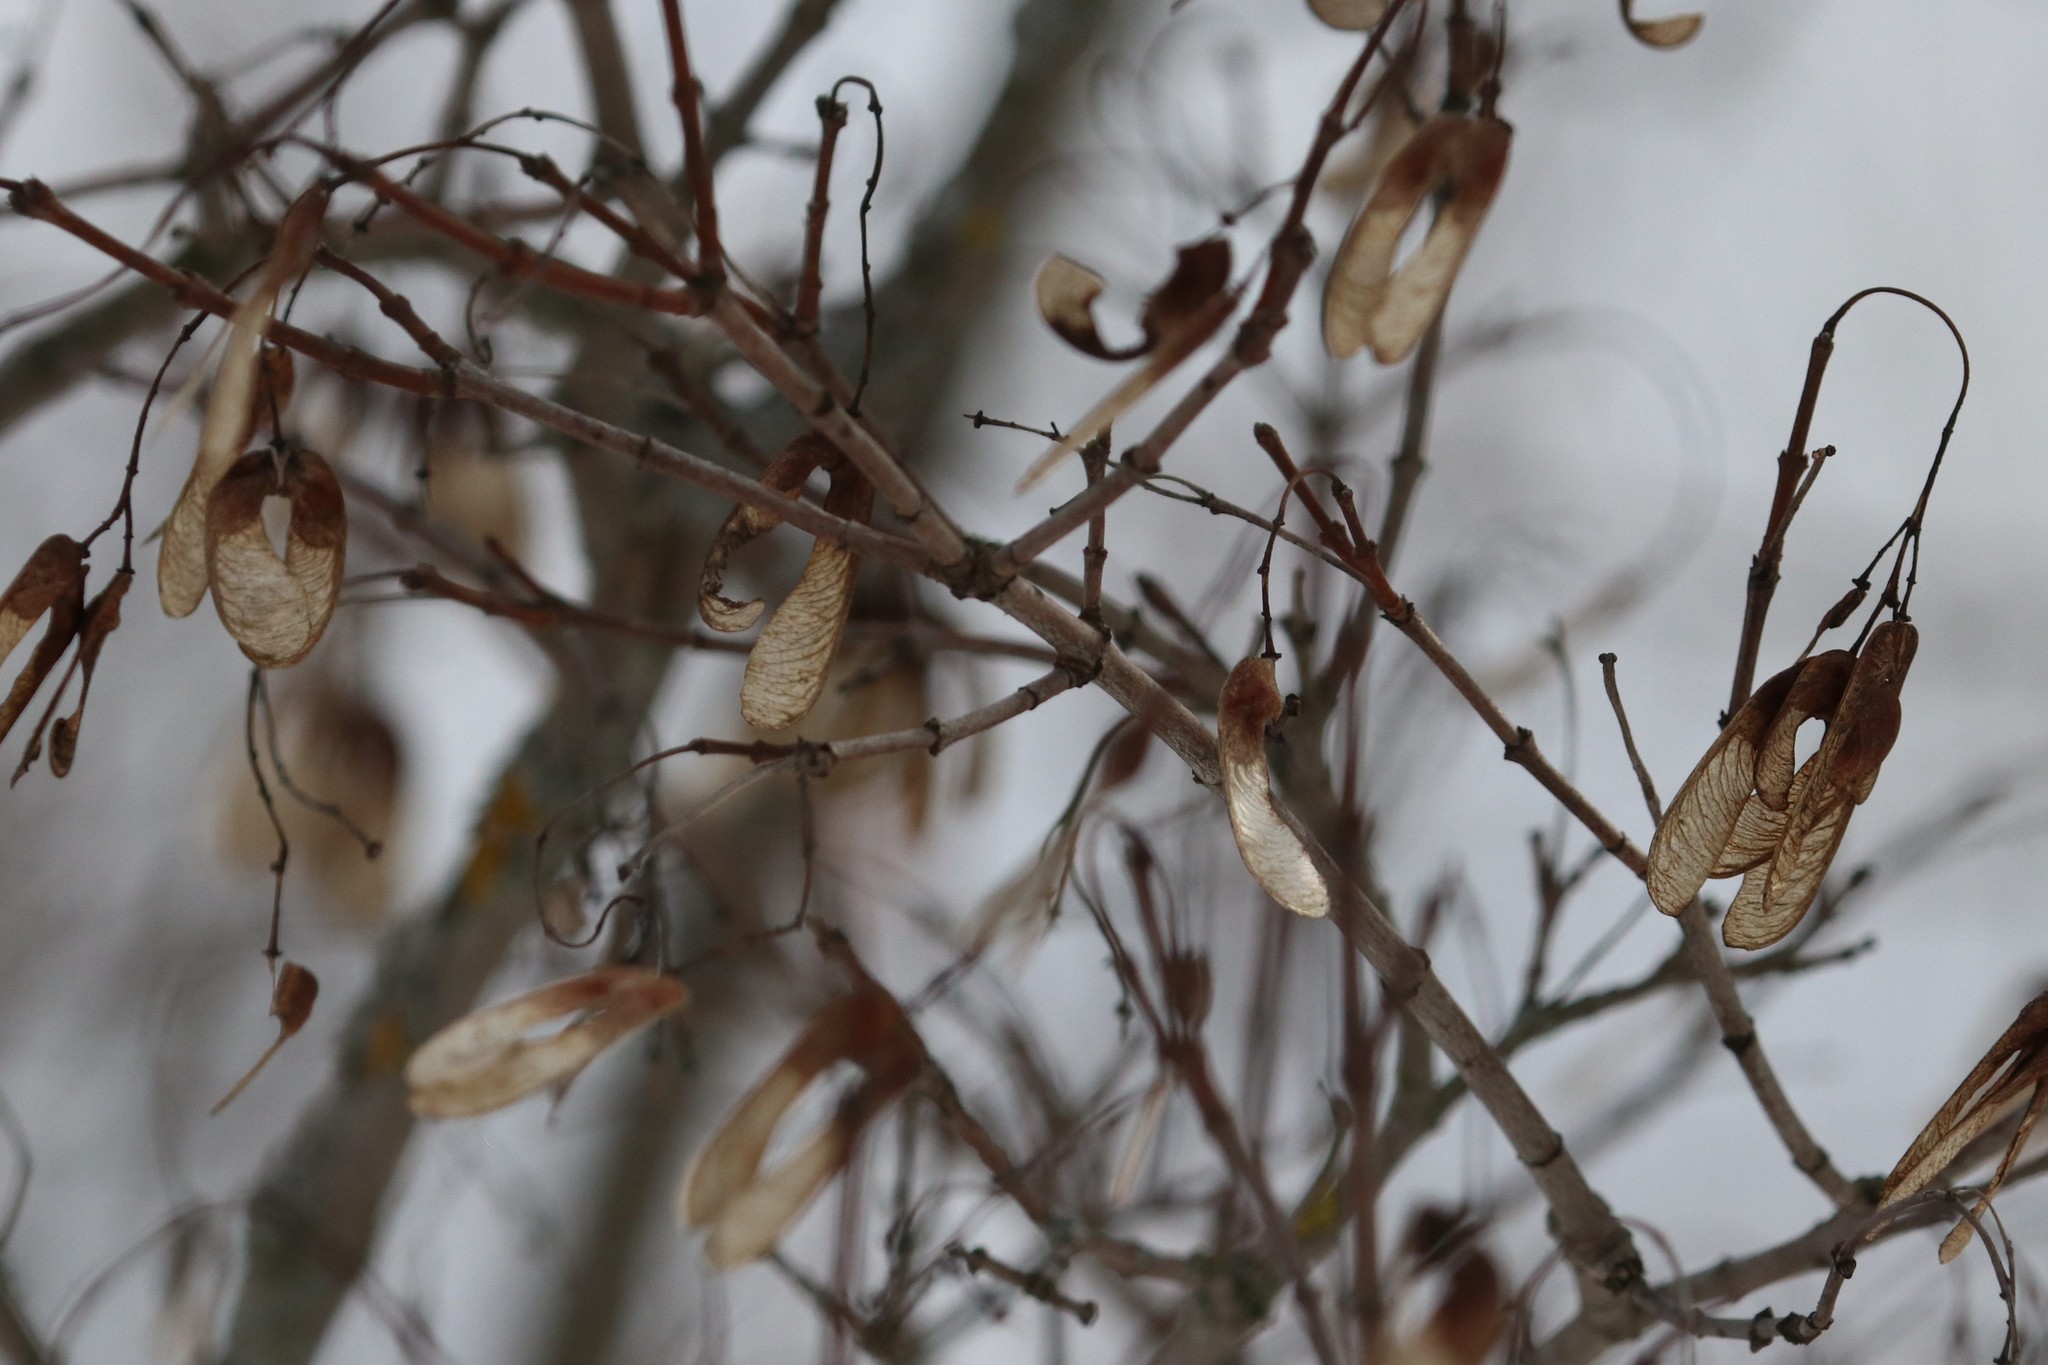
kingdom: Plantae
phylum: Tracheophyta
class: Magnoliopsida
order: Sapindales
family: Sapindaceae
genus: Acer
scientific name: Acer tataricum
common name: Tartar maple
